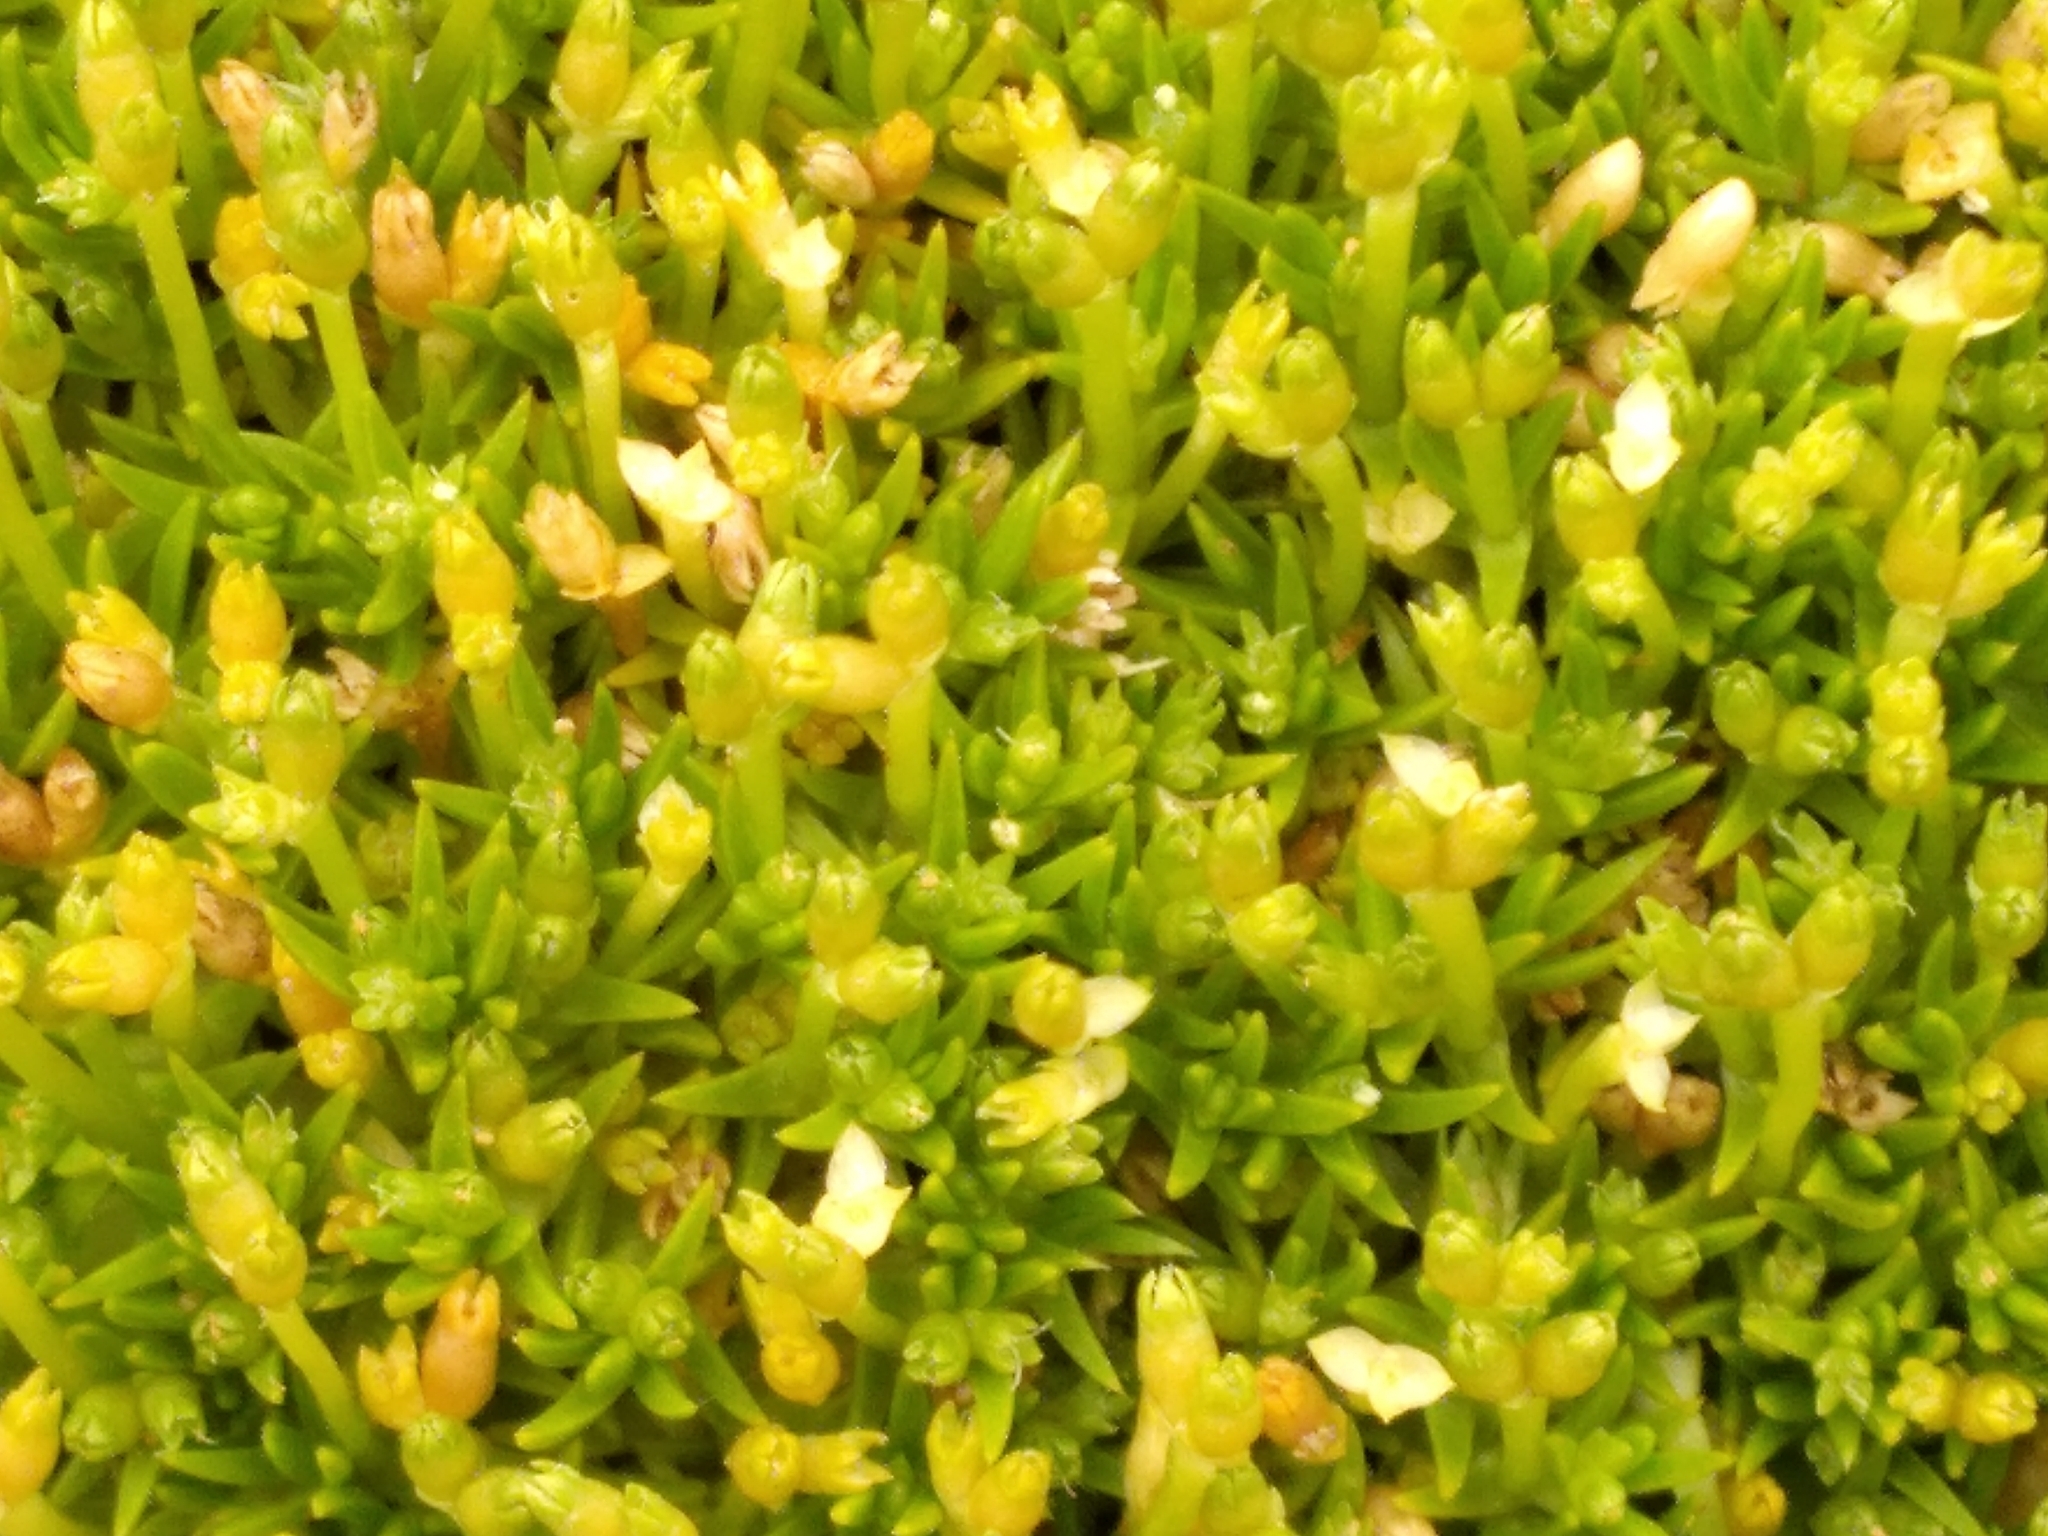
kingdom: Plantae
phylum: Tracheophyta
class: Magnoliopsida
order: Caryophyllales
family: Caryophyllaceae
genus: Scleranthus
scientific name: Scleranthus biflorus
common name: Two-flower knawel
